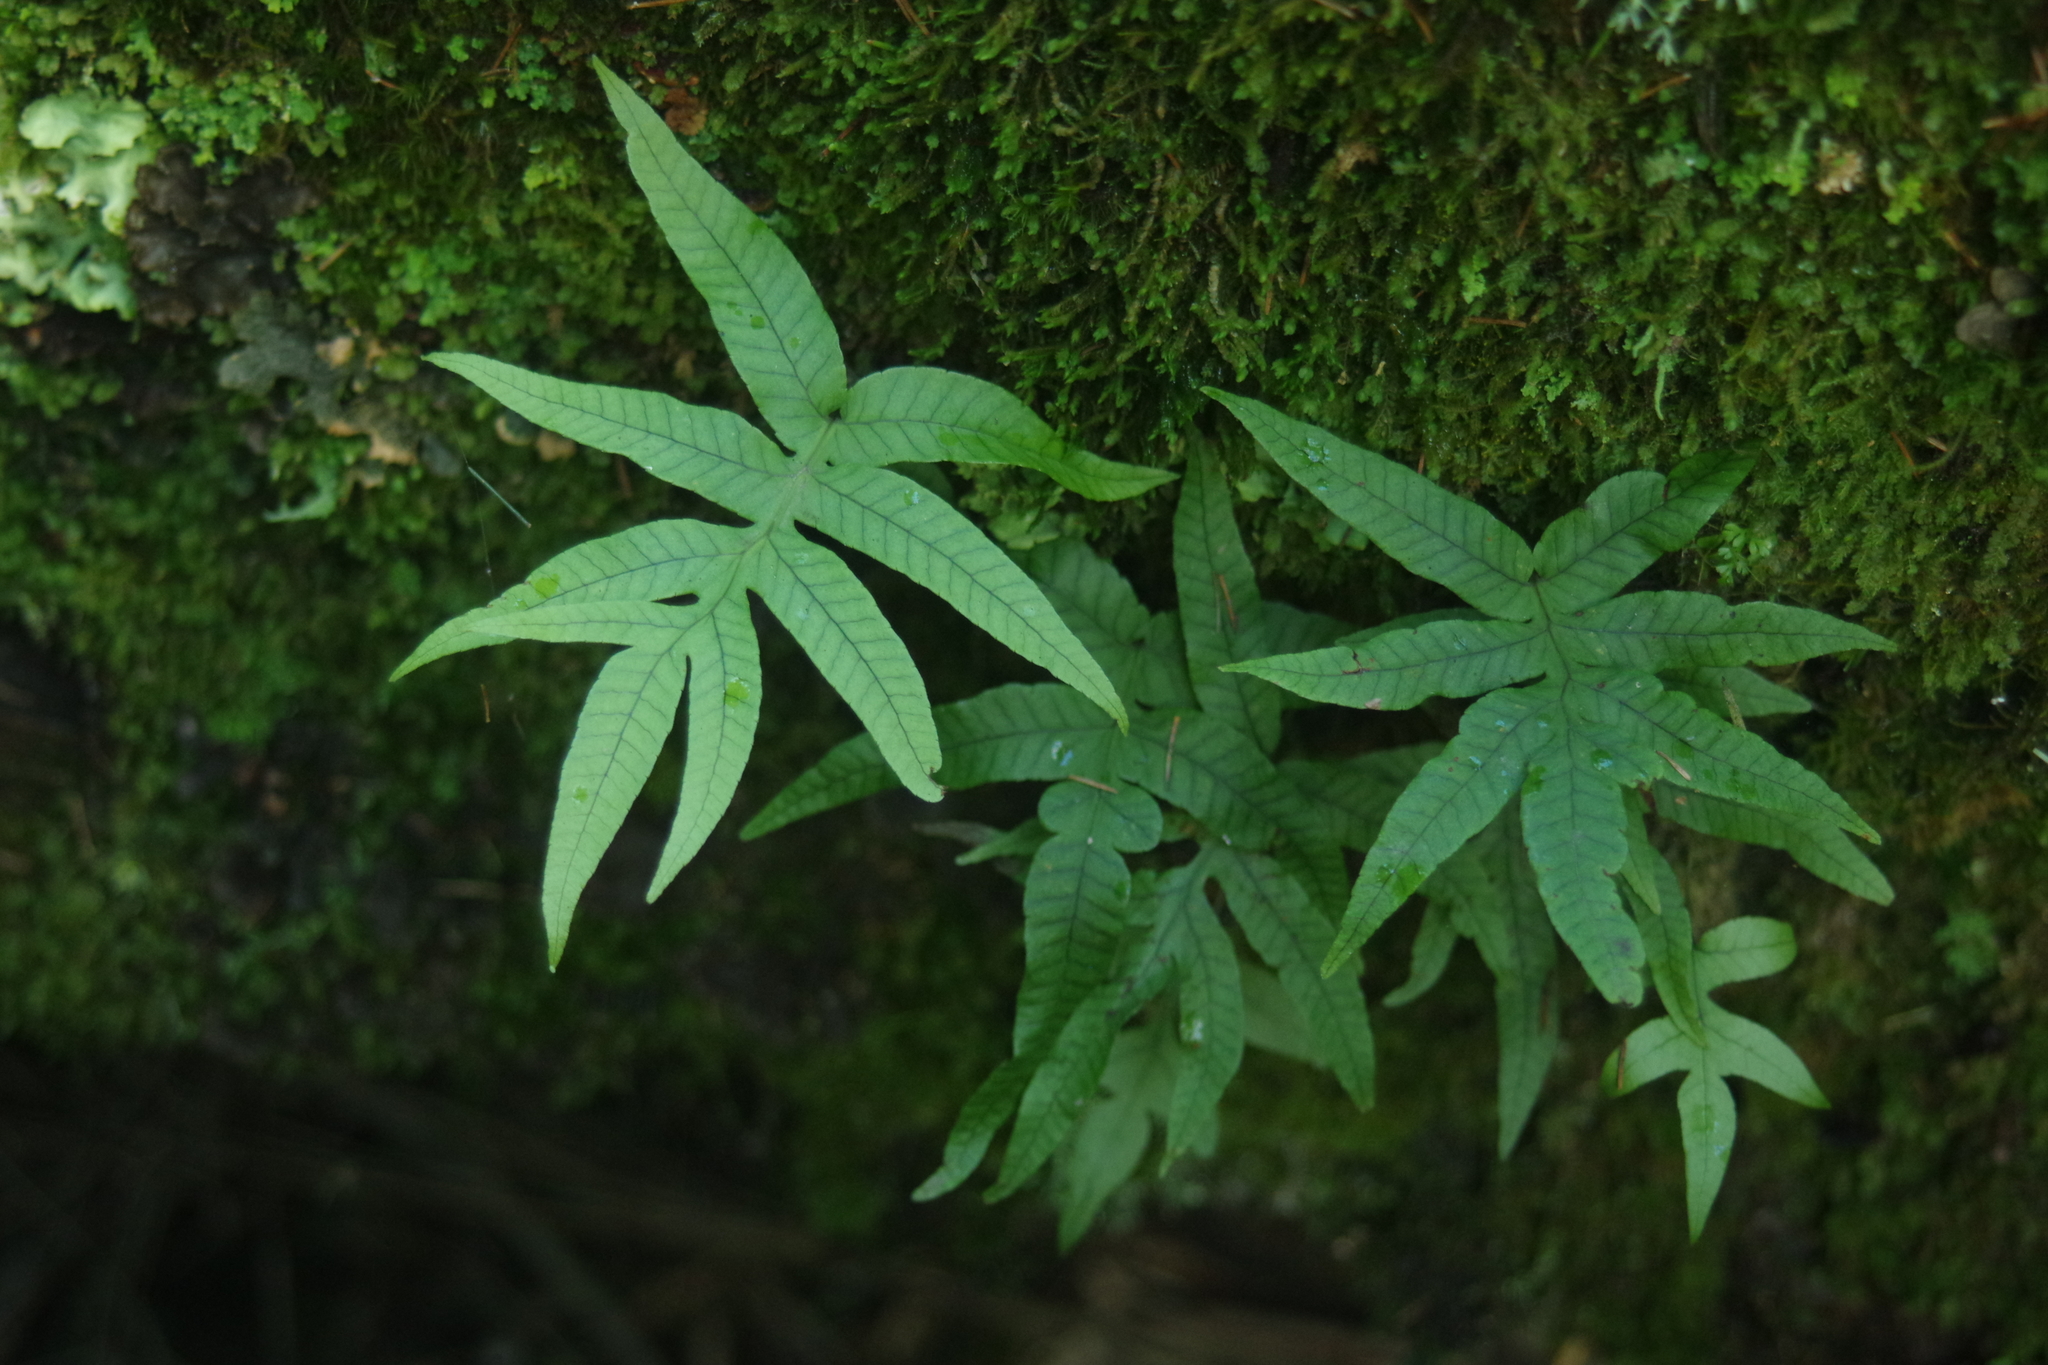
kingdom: Plantae
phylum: Tracheophyta
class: Polypodiopsida
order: Polypodiales
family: Polypodiaceae
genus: Selliguea
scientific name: Selliguea quasidivaricata
